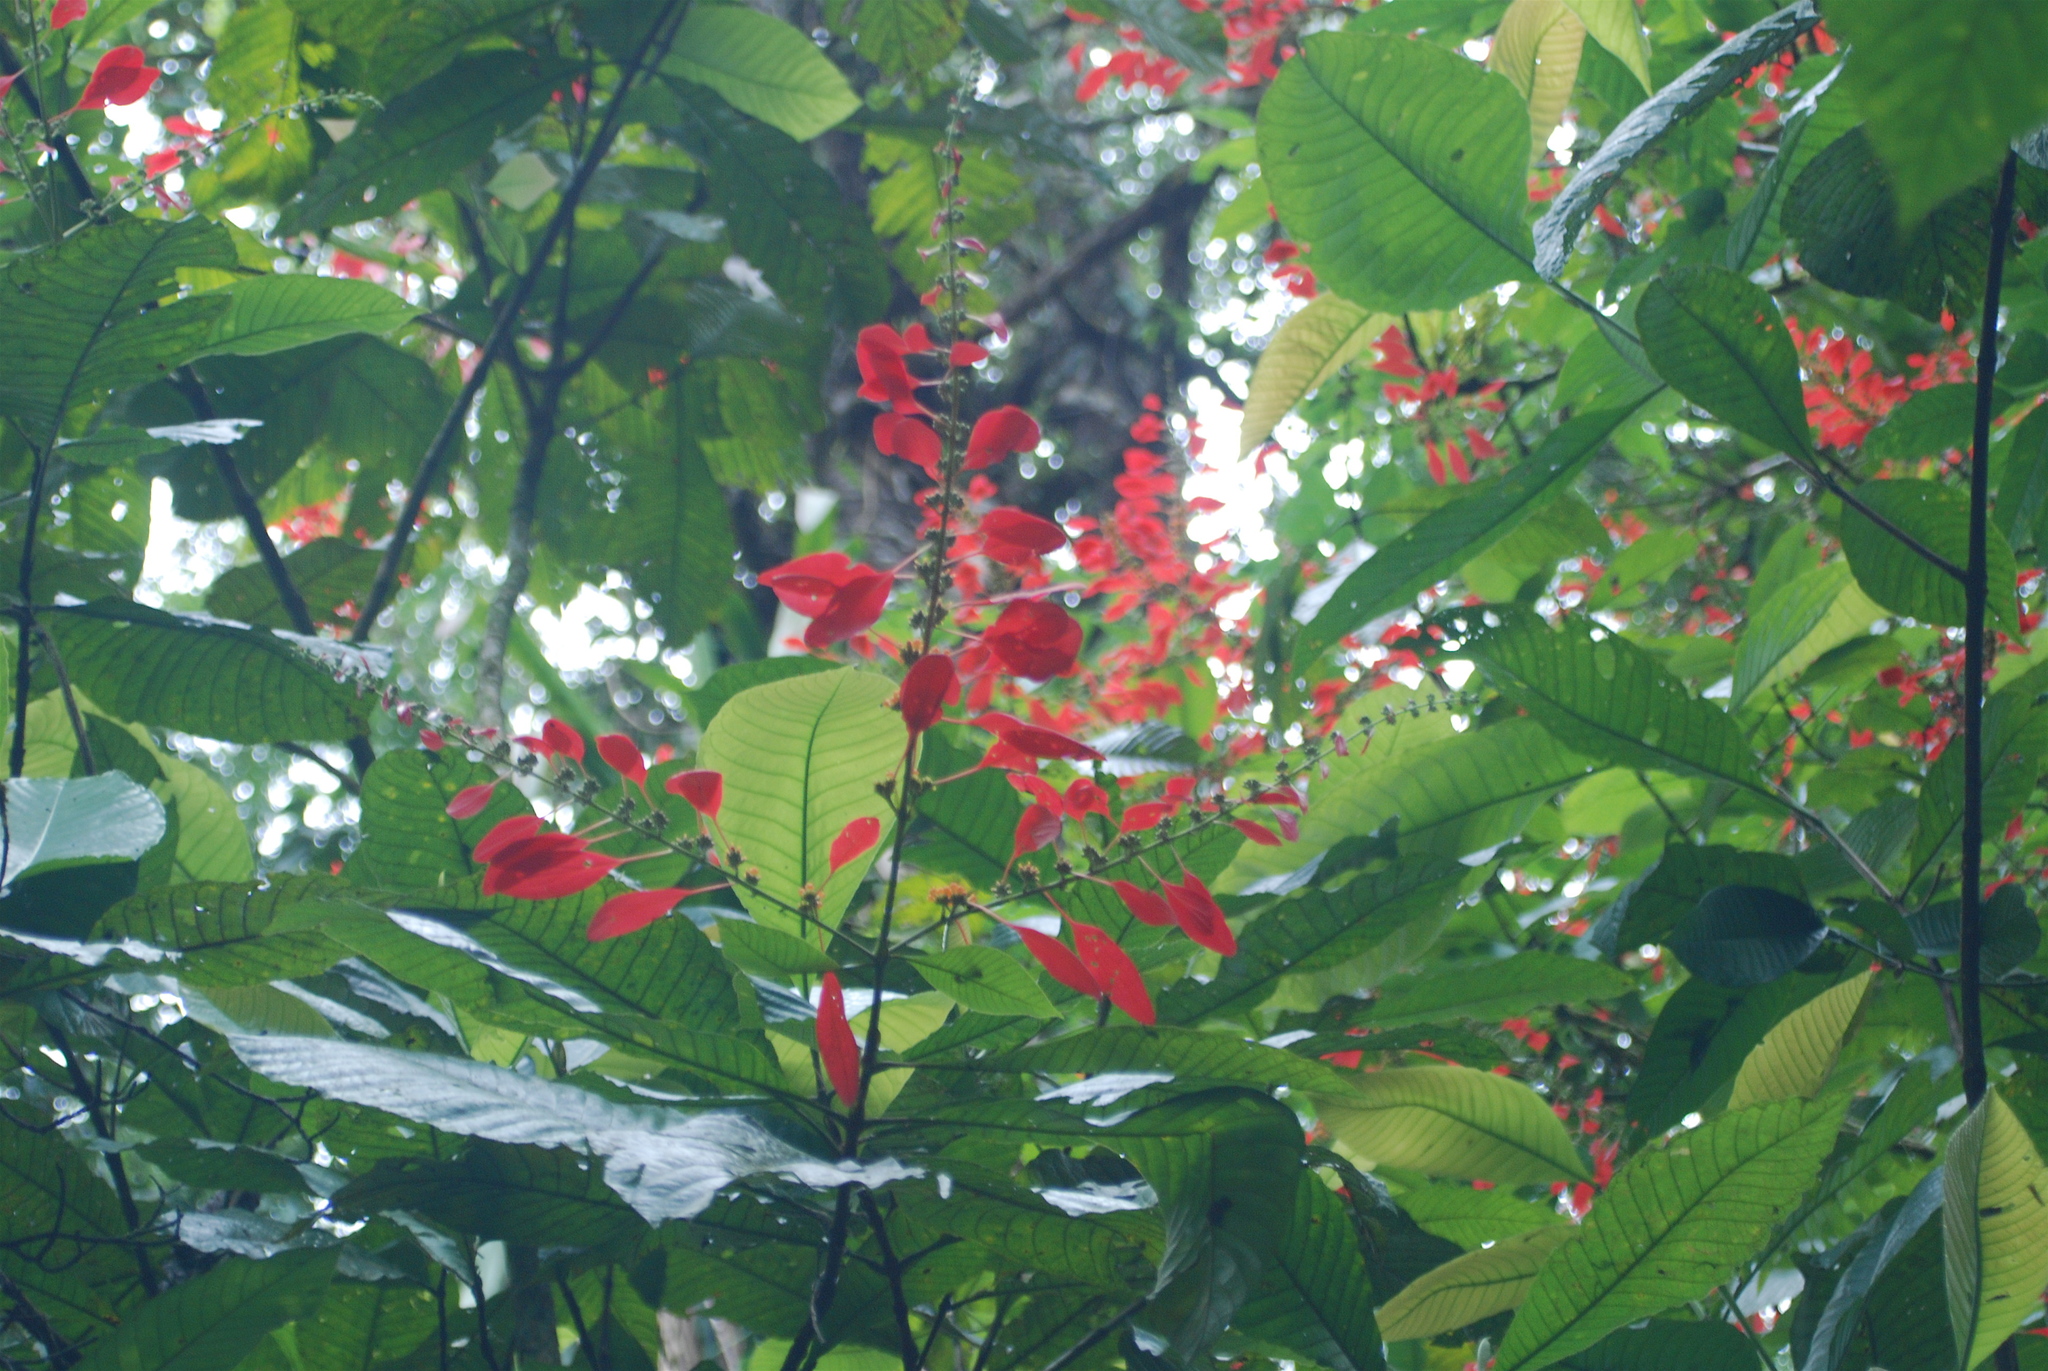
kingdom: Plantae
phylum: Tracheophyta
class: Magnoliopsida
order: Gentianales
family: Rubiaceae
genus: Warszewiczia
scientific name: Warszewiczia coccinea
